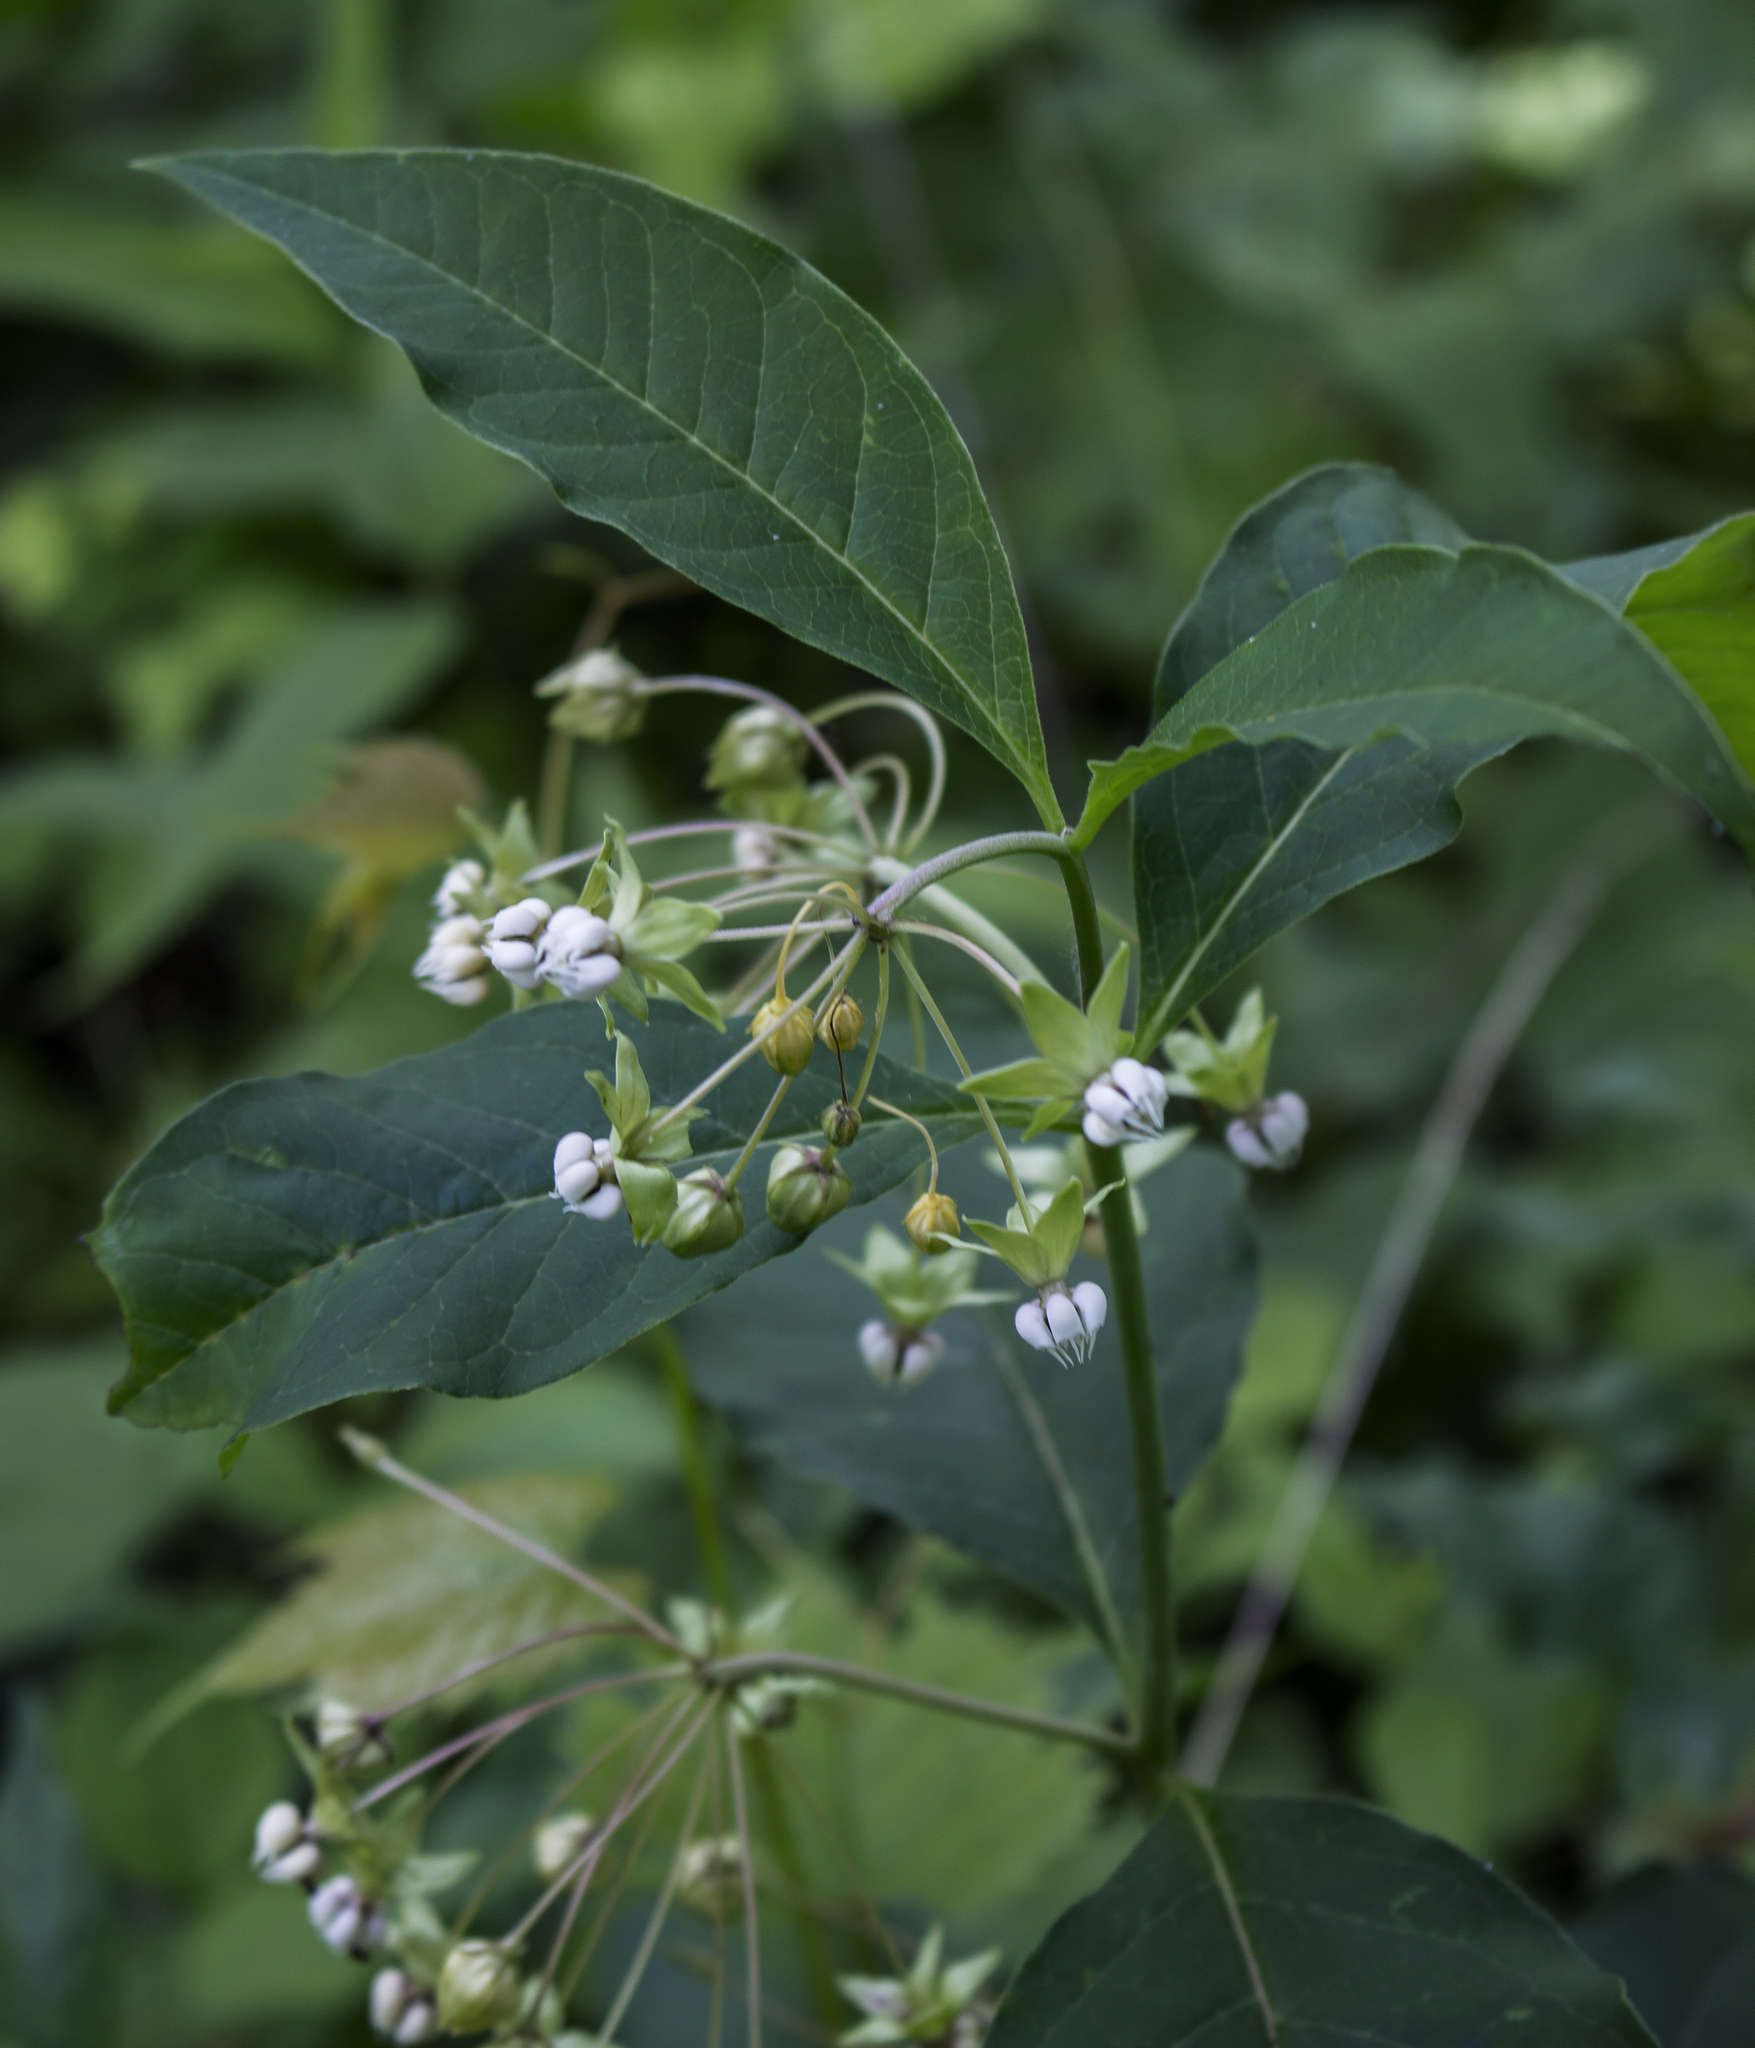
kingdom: Plantae
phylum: Tracheophyta
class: Magnoliopsida
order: Gentianales
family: Apocynaceae
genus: Asclepias
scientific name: Asclepias exaltata
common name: Poke milkweed
